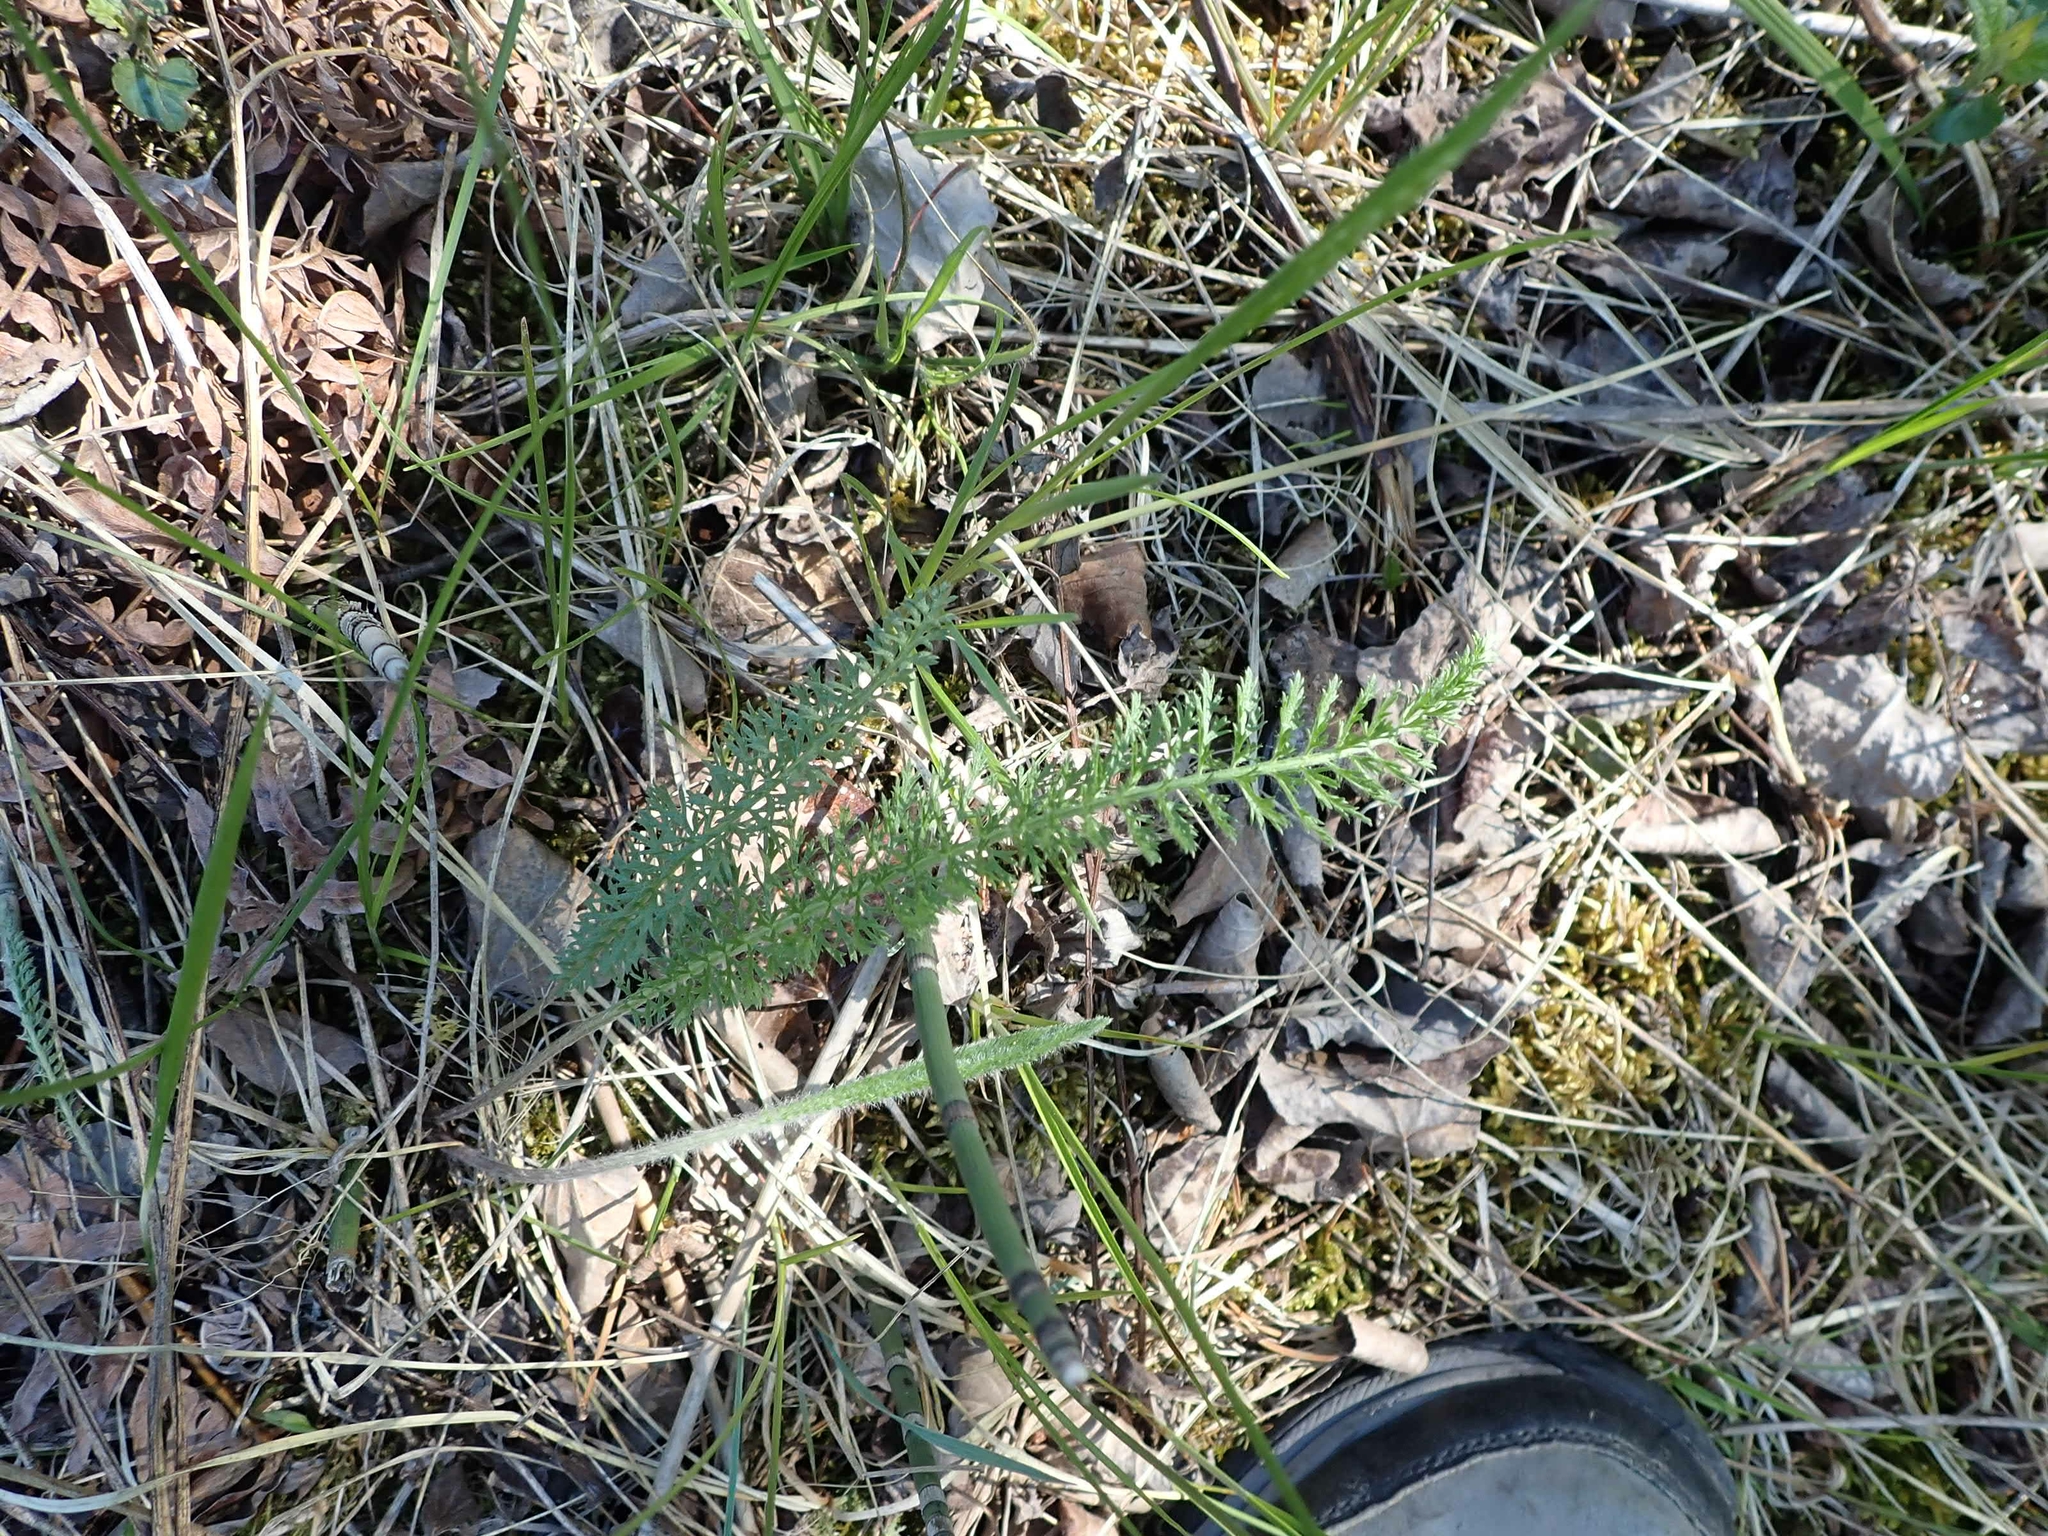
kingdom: Plantae
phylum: Tracheophyta
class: Magnoliopsida
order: Asterales
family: Asteraceae
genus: Achillea
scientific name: Achillea millefolium
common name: Yarrow
